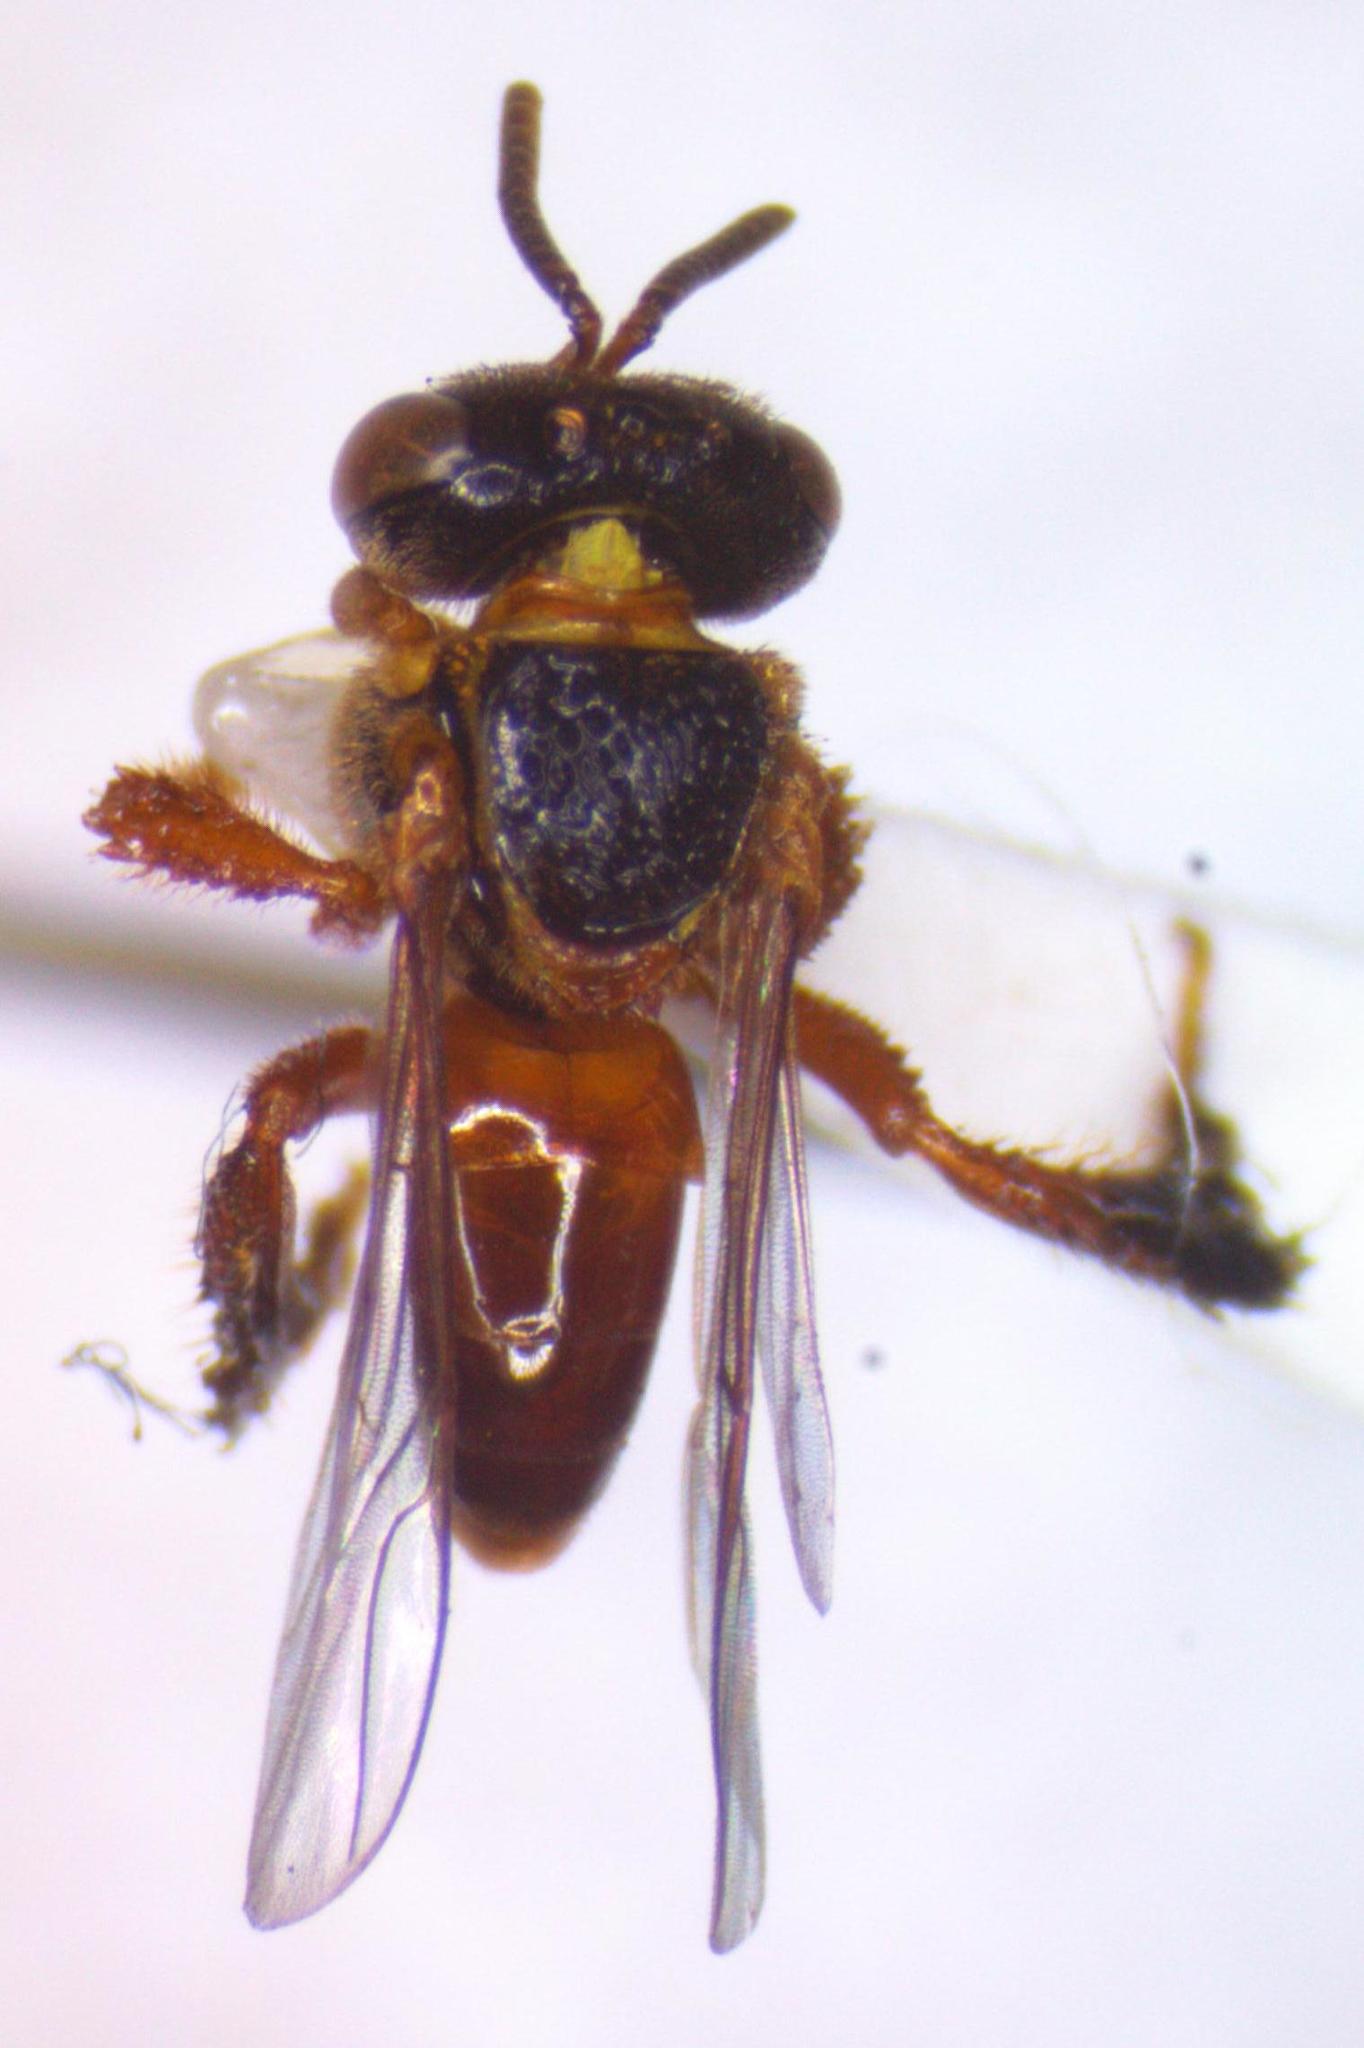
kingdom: Animalia
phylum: Arthropoda
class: Insecta
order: Hymenoptera
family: Apidae
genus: Tetragonisca
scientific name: Tetragonisca angustula
